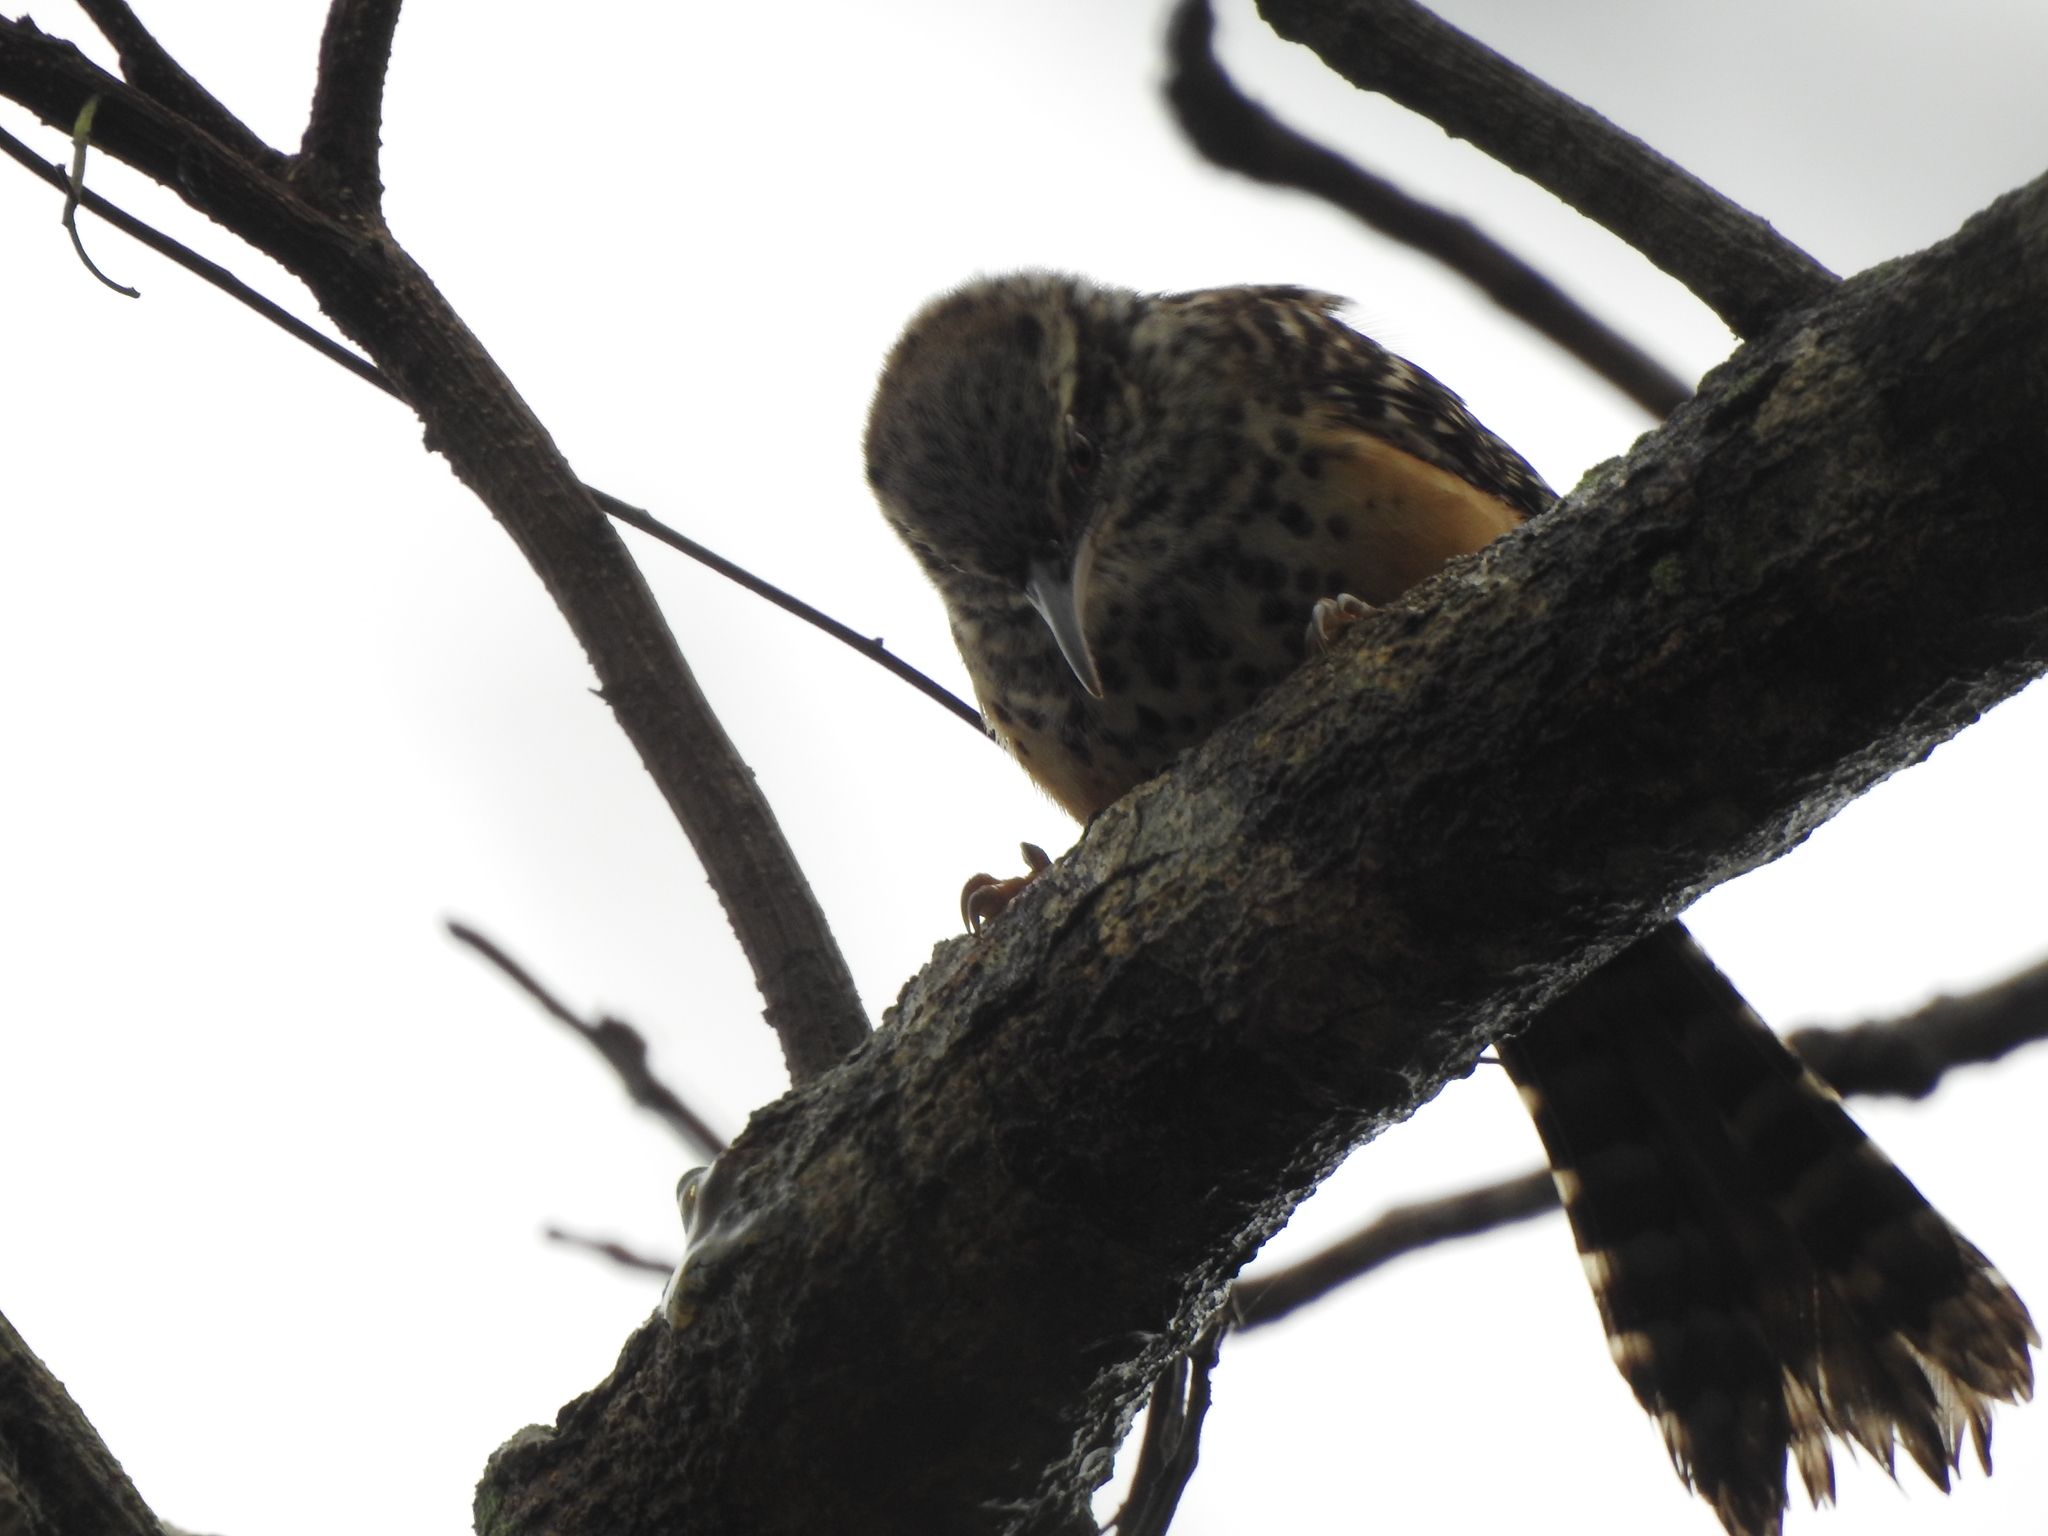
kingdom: Animalia
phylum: Chordata
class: Aves
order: Passeriformes
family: Troglodytidae
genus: Campylorhynchus
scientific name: Campylorhynchus zonatus
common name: Band-backed wren
